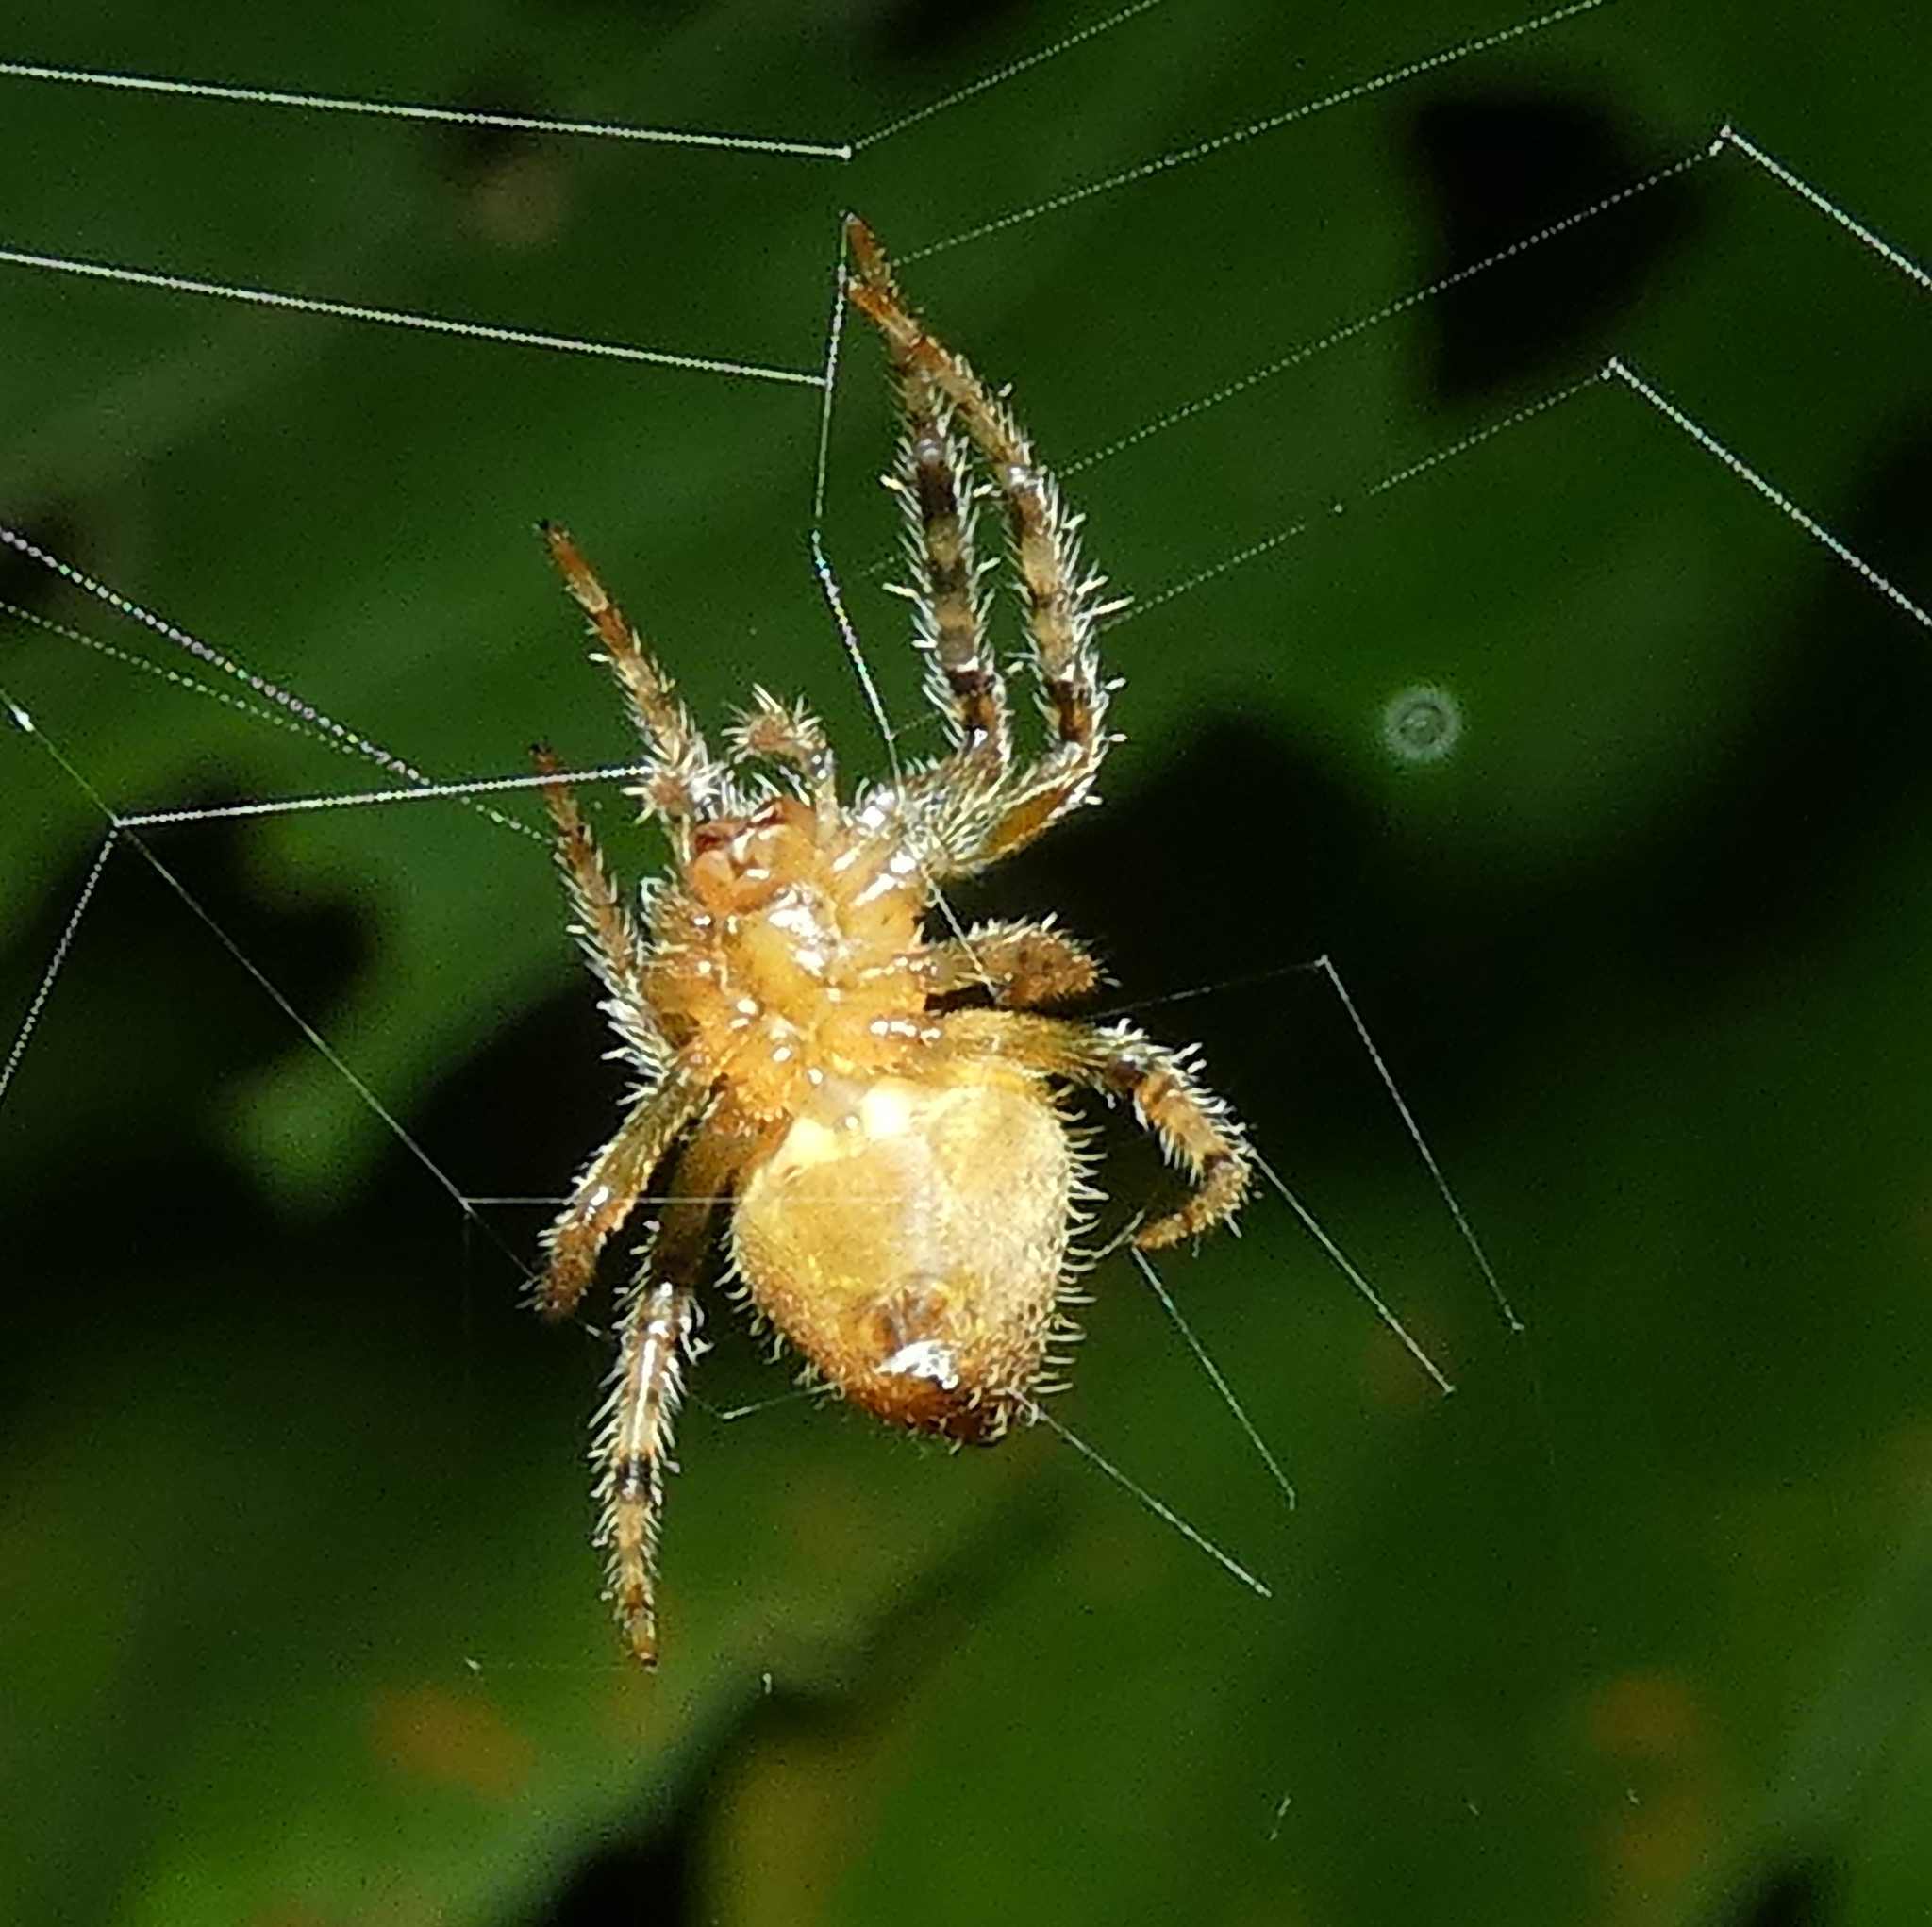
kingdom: Animalia
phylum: Arthropoda
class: Arachnida
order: Araneae
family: Araneidae
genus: Eriophora
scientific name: Eriophora edax
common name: Orb weavers
